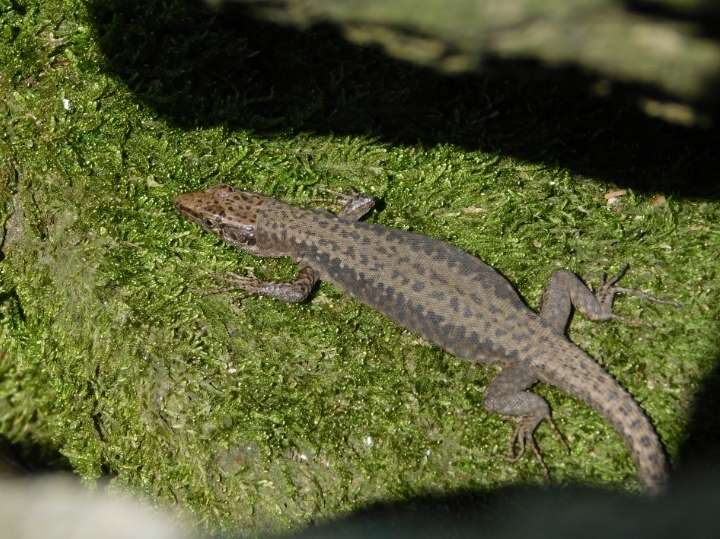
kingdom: Animalia
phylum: Chordata
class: Squamata
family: Lacertidae
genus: Darevskia
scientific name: Darevskia brauneri
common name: Brauner's rock lizard
